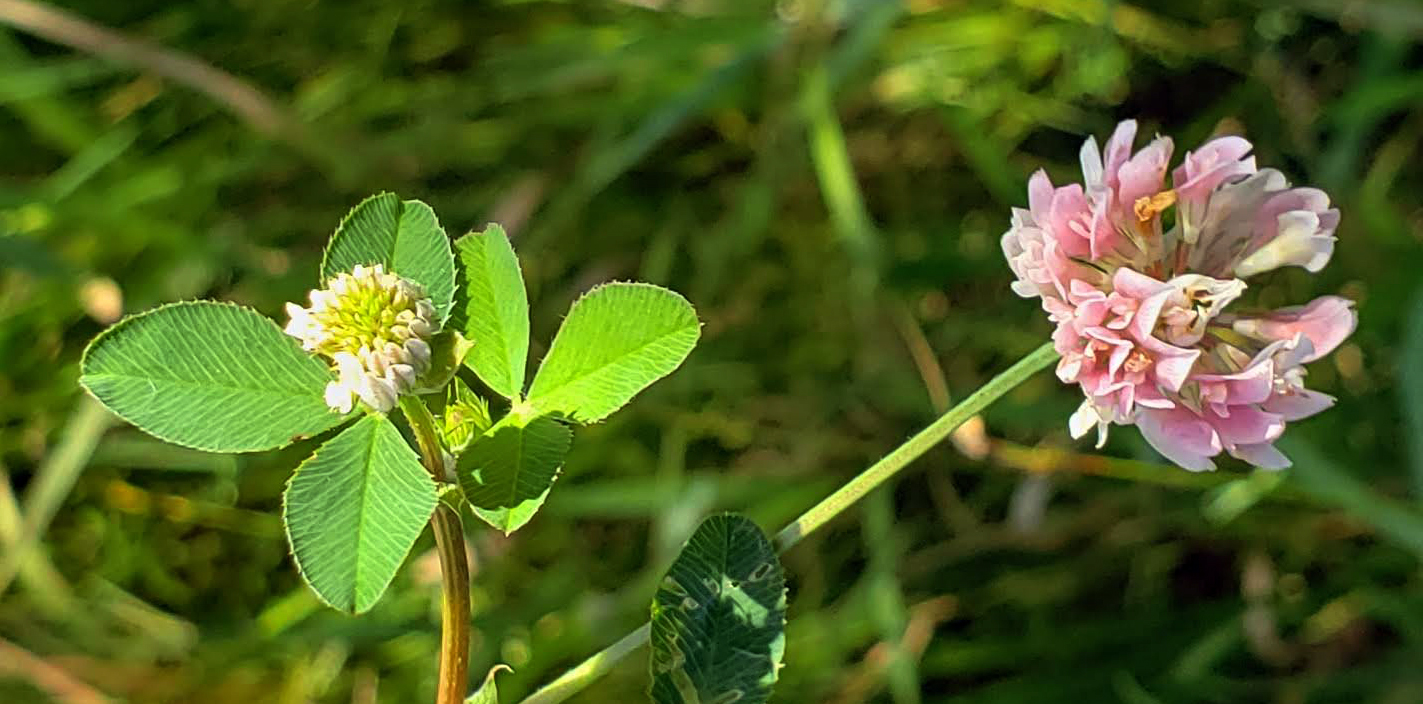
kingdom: Plantae
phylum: Tracheophyta
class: Magnoliopsida
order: Fabales
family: Fabaceae
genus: Trifolium
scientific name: Trifolium hybridum
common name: Alsike clover
